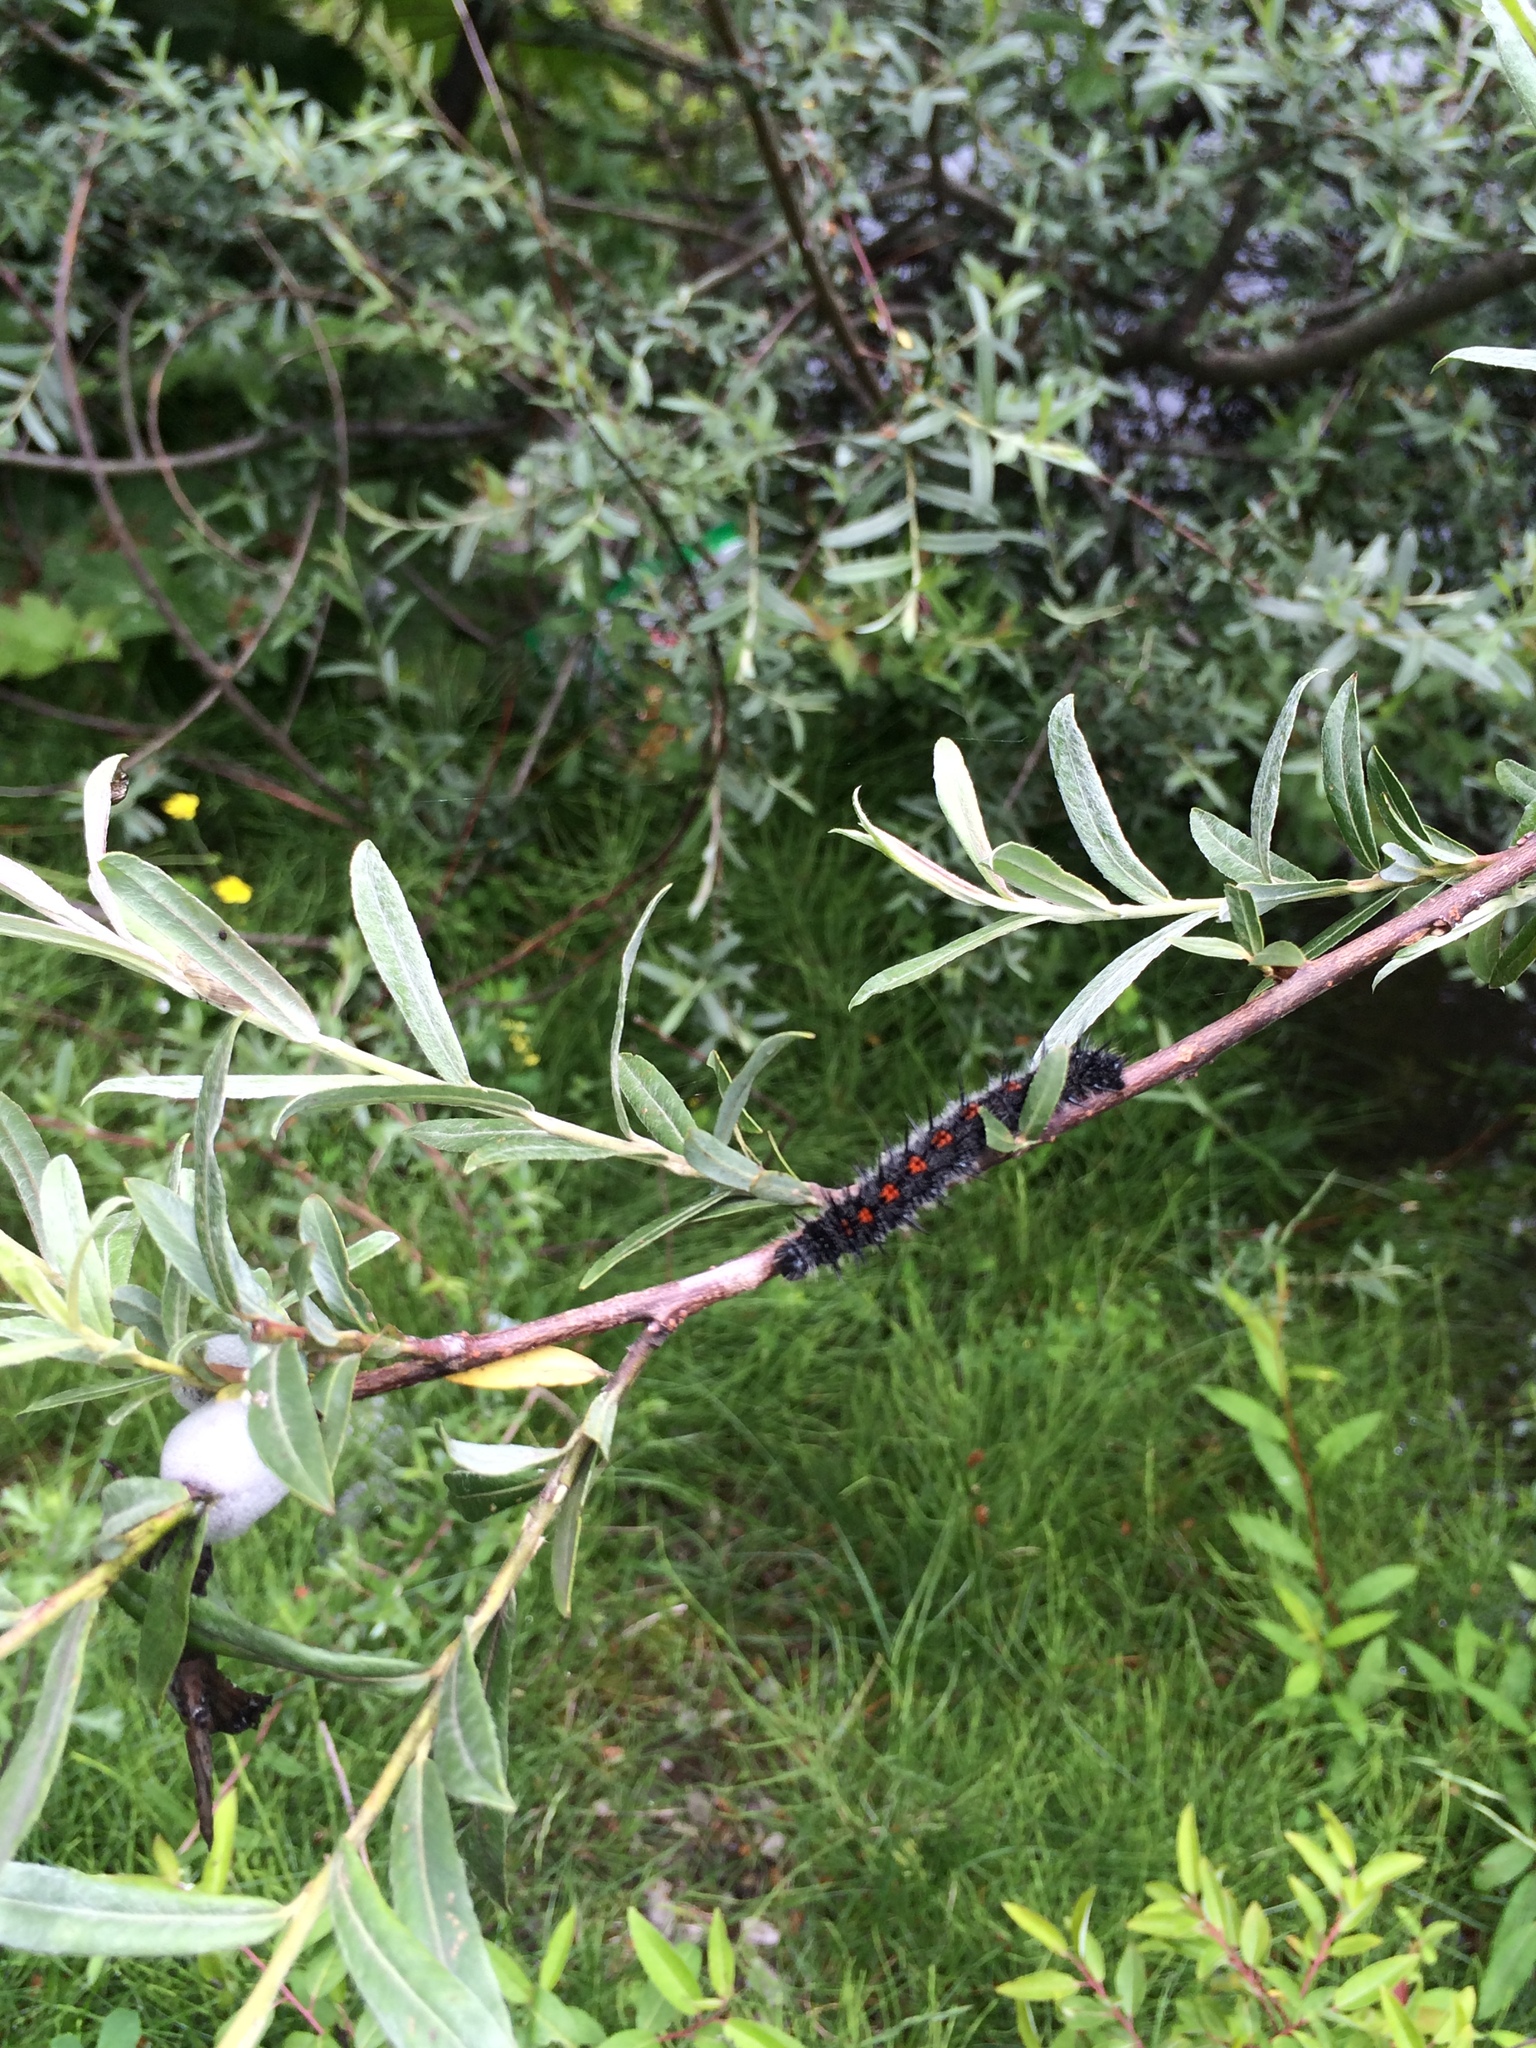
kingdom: Animalia
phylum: Arthropoda
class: Insecta
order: Lepidoptera
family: Nymphalidae
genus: Nymphalis
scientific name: Nymphalis antiopa
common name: Camberwell beauty
